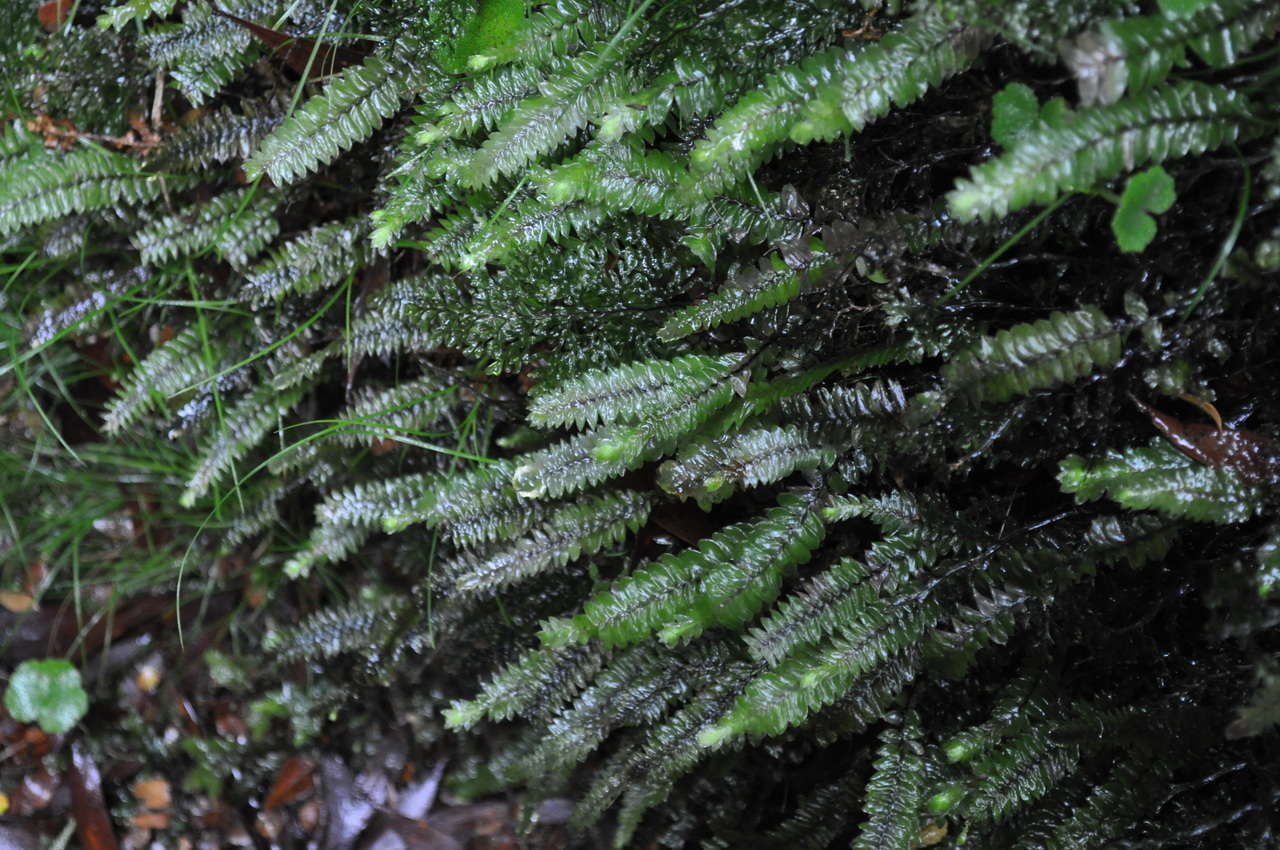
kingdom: Plantae
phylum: Bryophyta
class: Bryopsida
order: Hypopterygiales
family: Hypopterygiaceae
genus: Cyathophorum
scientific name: Cyathophorum bulbosum
